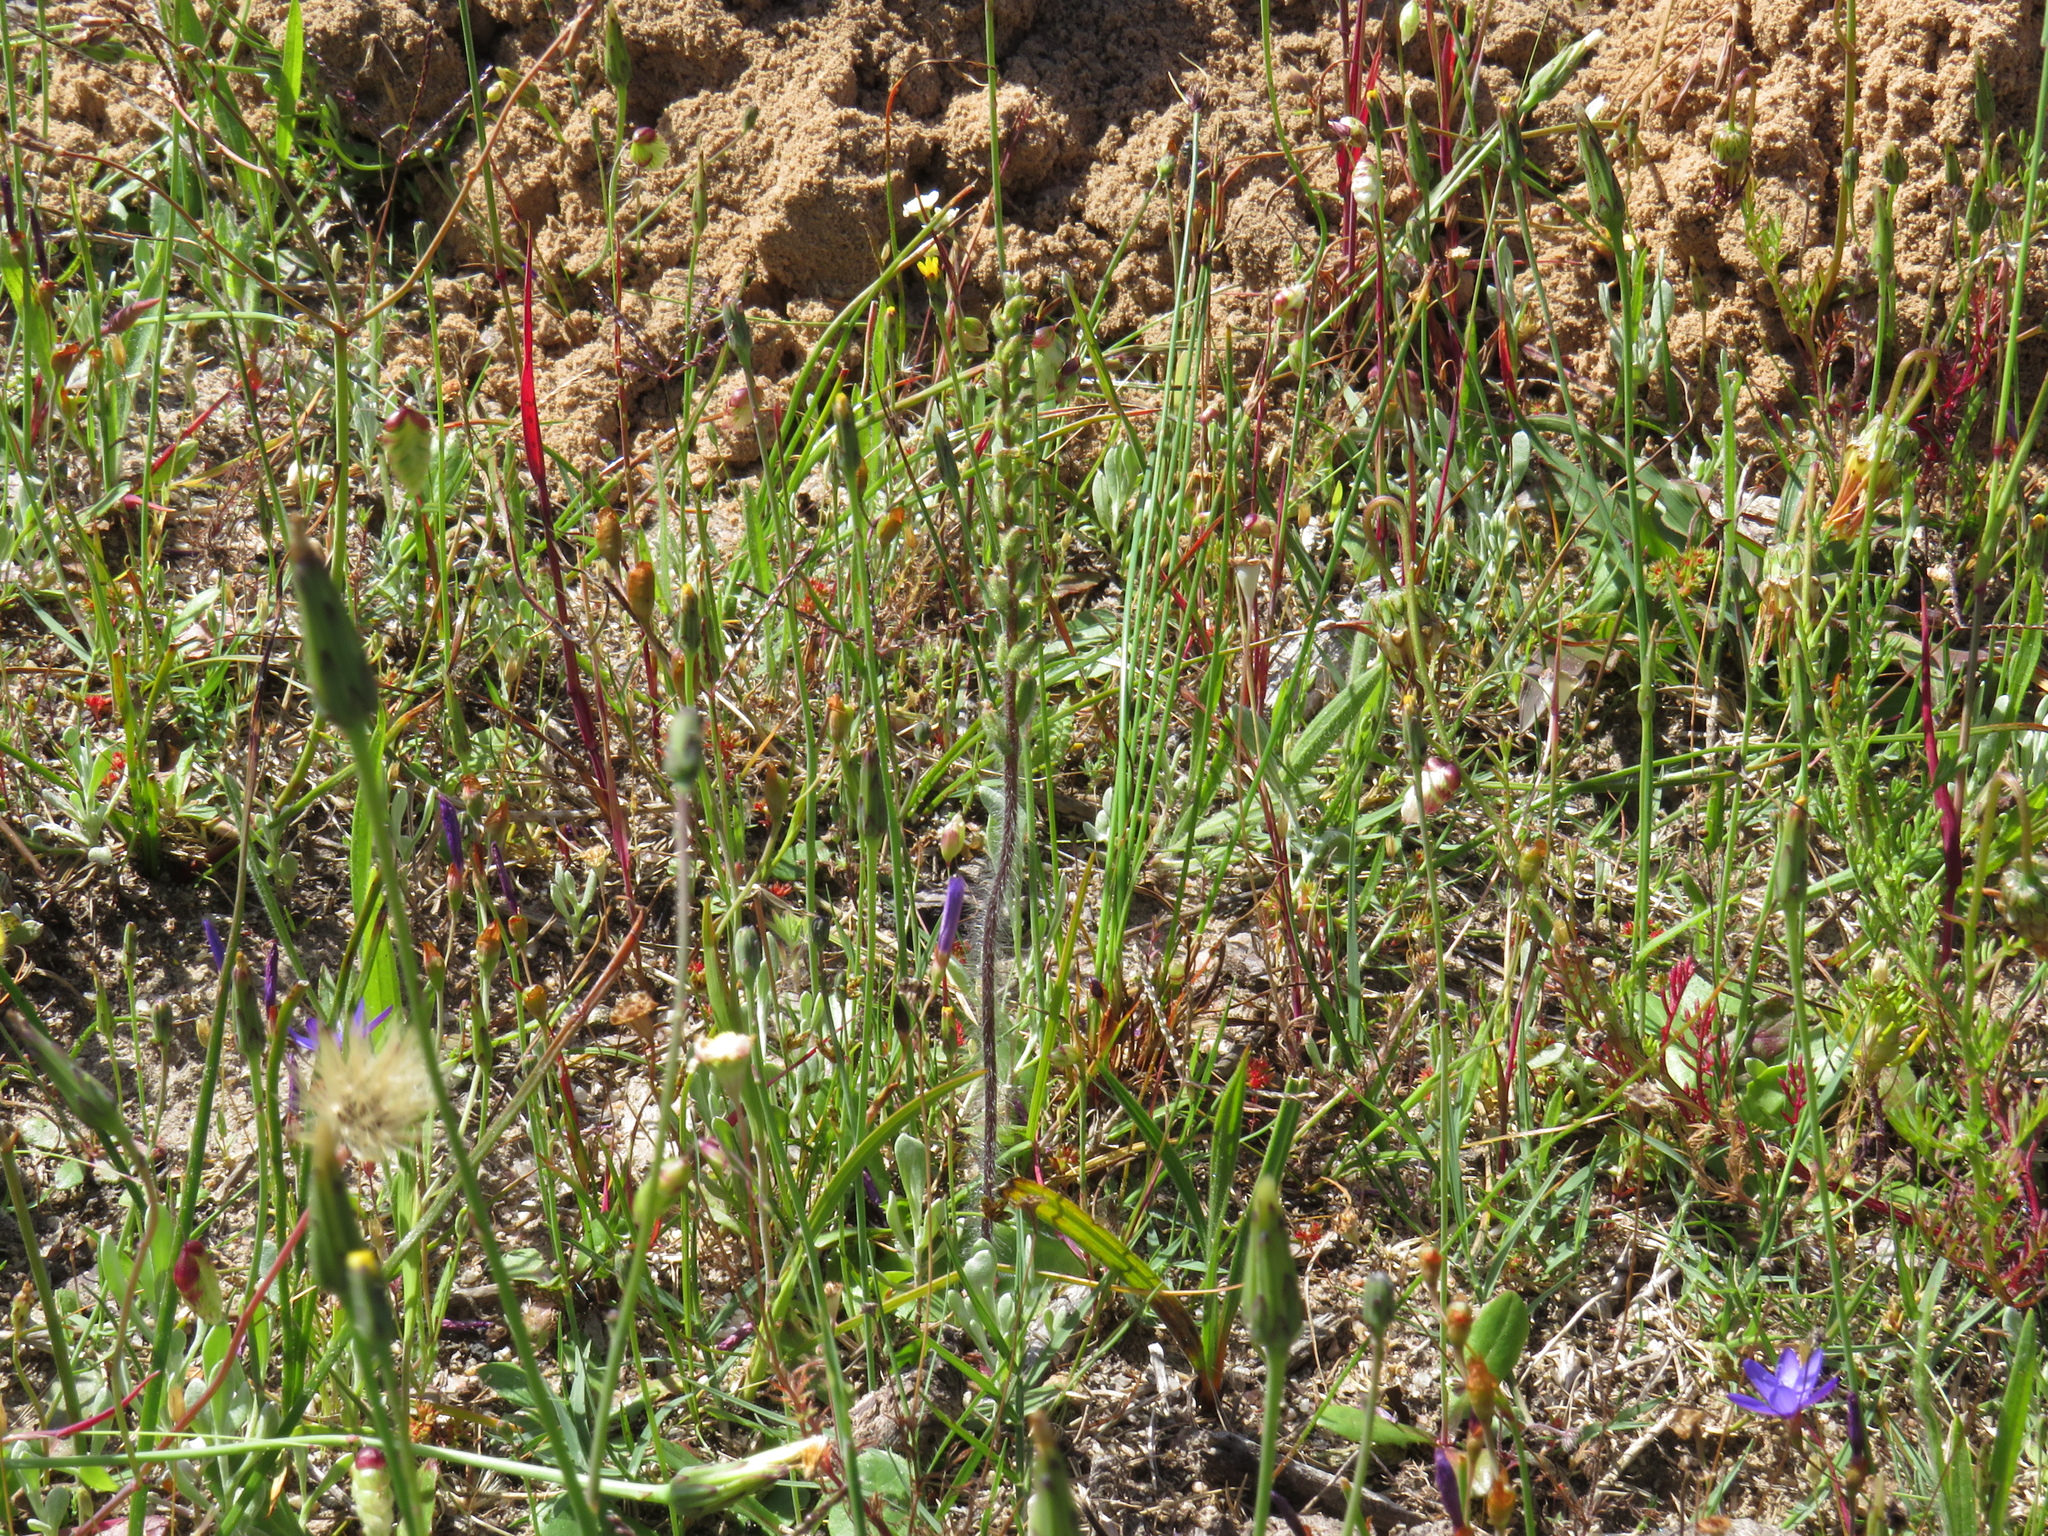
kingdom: Plantae
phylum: Tracheophyta
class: Liliopsida
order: Asparagales
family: Orchidaceae
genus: Holothrix
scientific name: Holothrix villosa
